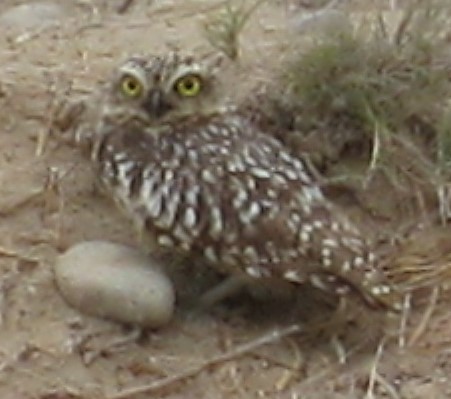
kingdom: Animalia
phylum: Chordata
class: Aves
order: Strigiformes
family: Strigidae
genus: Athene
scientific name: Athene cunicularia
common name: Burrowing owl
